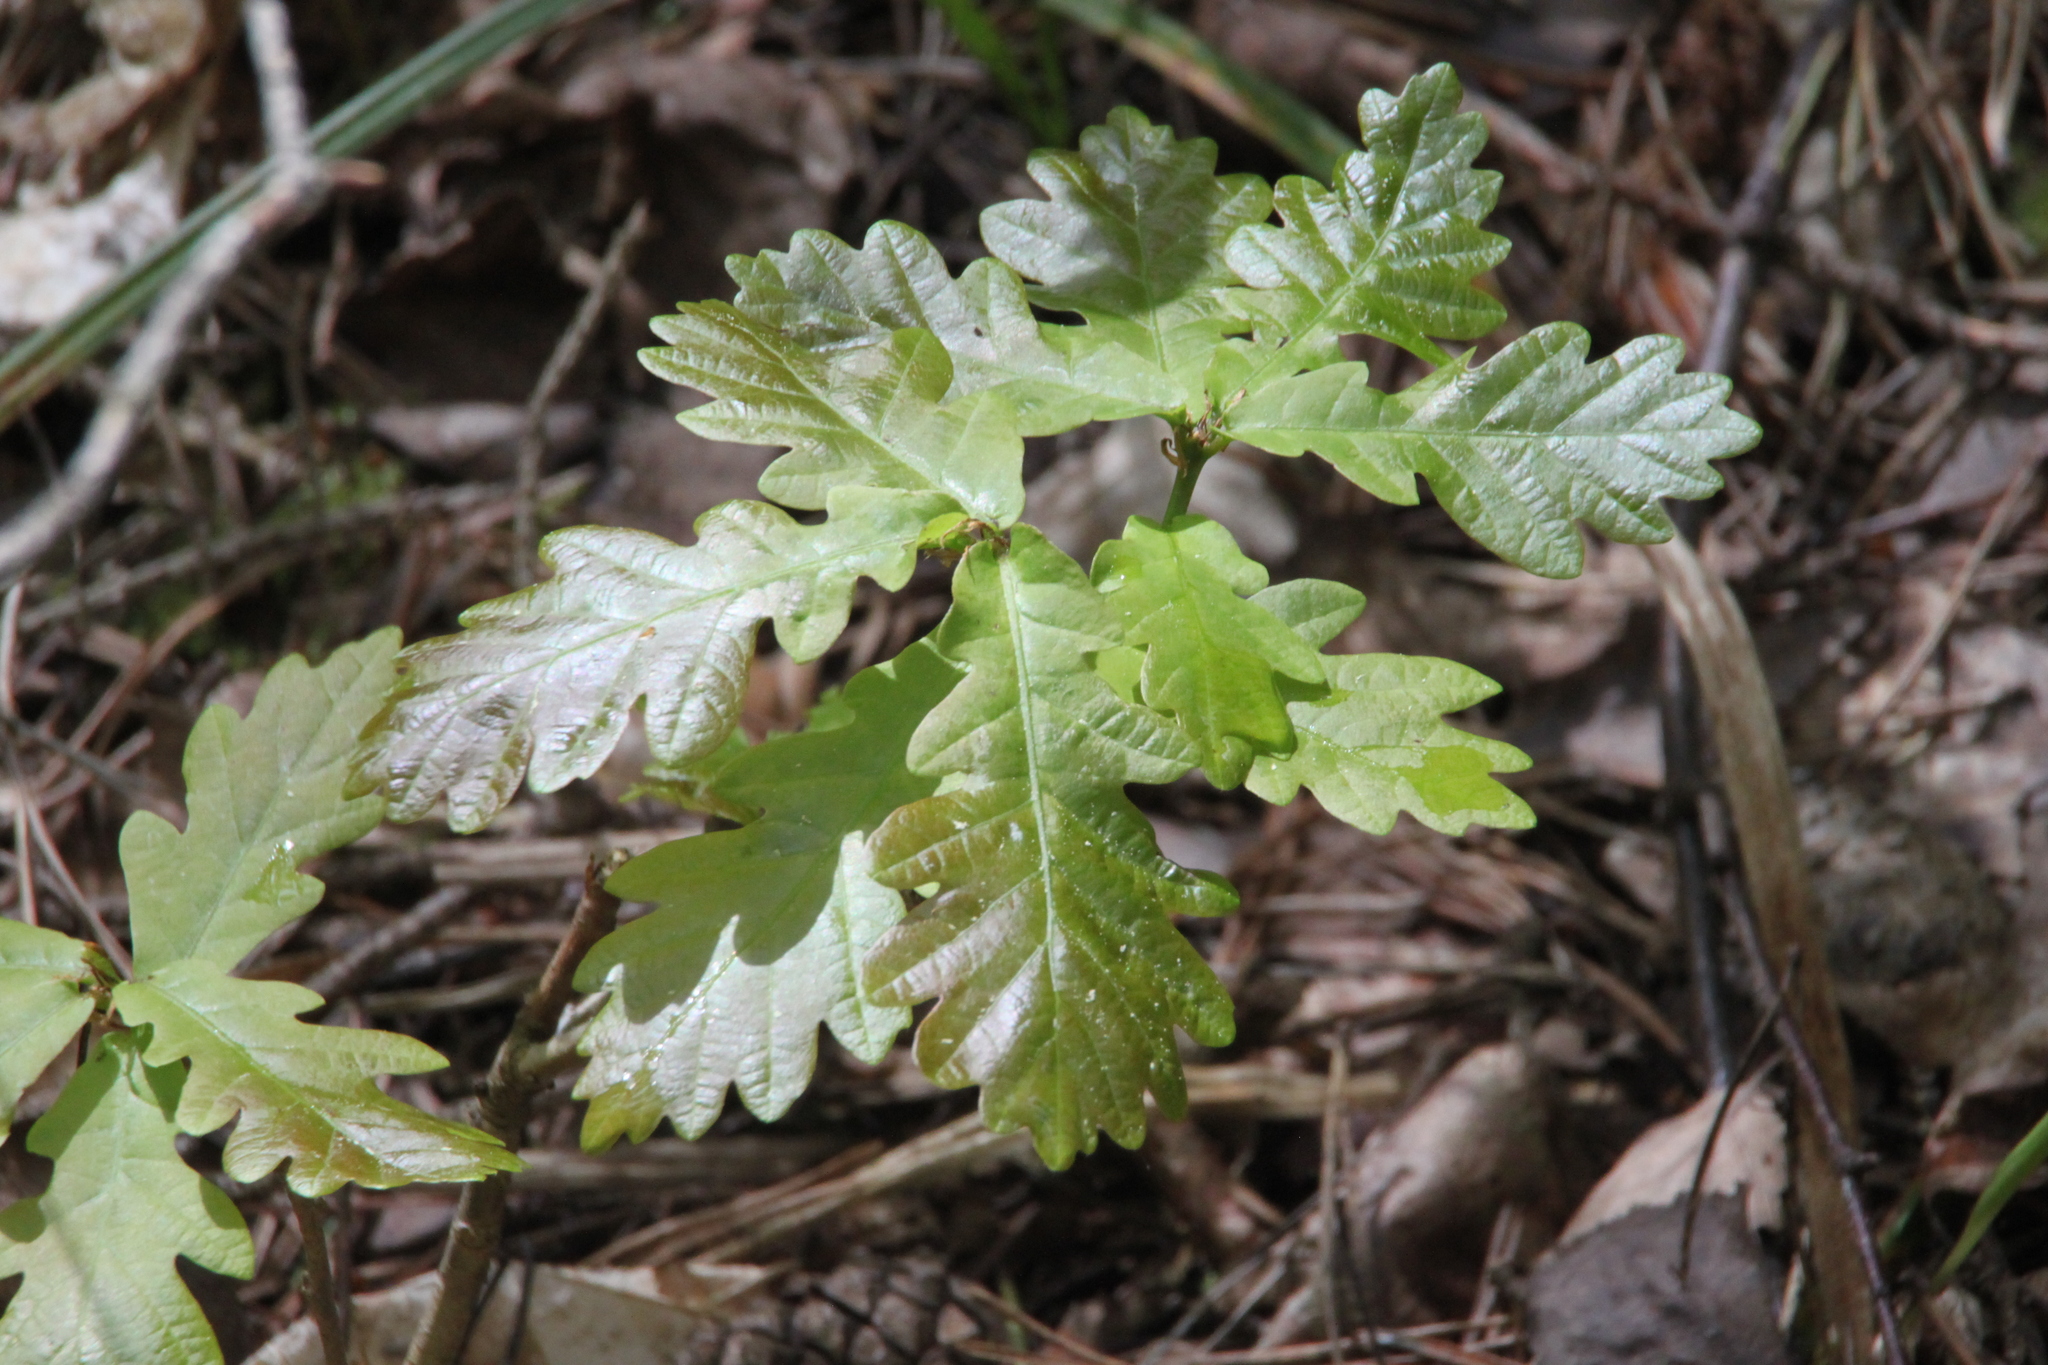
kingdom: Plantae
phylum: Tracheophyta
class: Magnoliopsida
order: Fagales
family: Fagaceae
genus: Quercus
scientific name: Quercus robur
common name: Pedunculate oak
